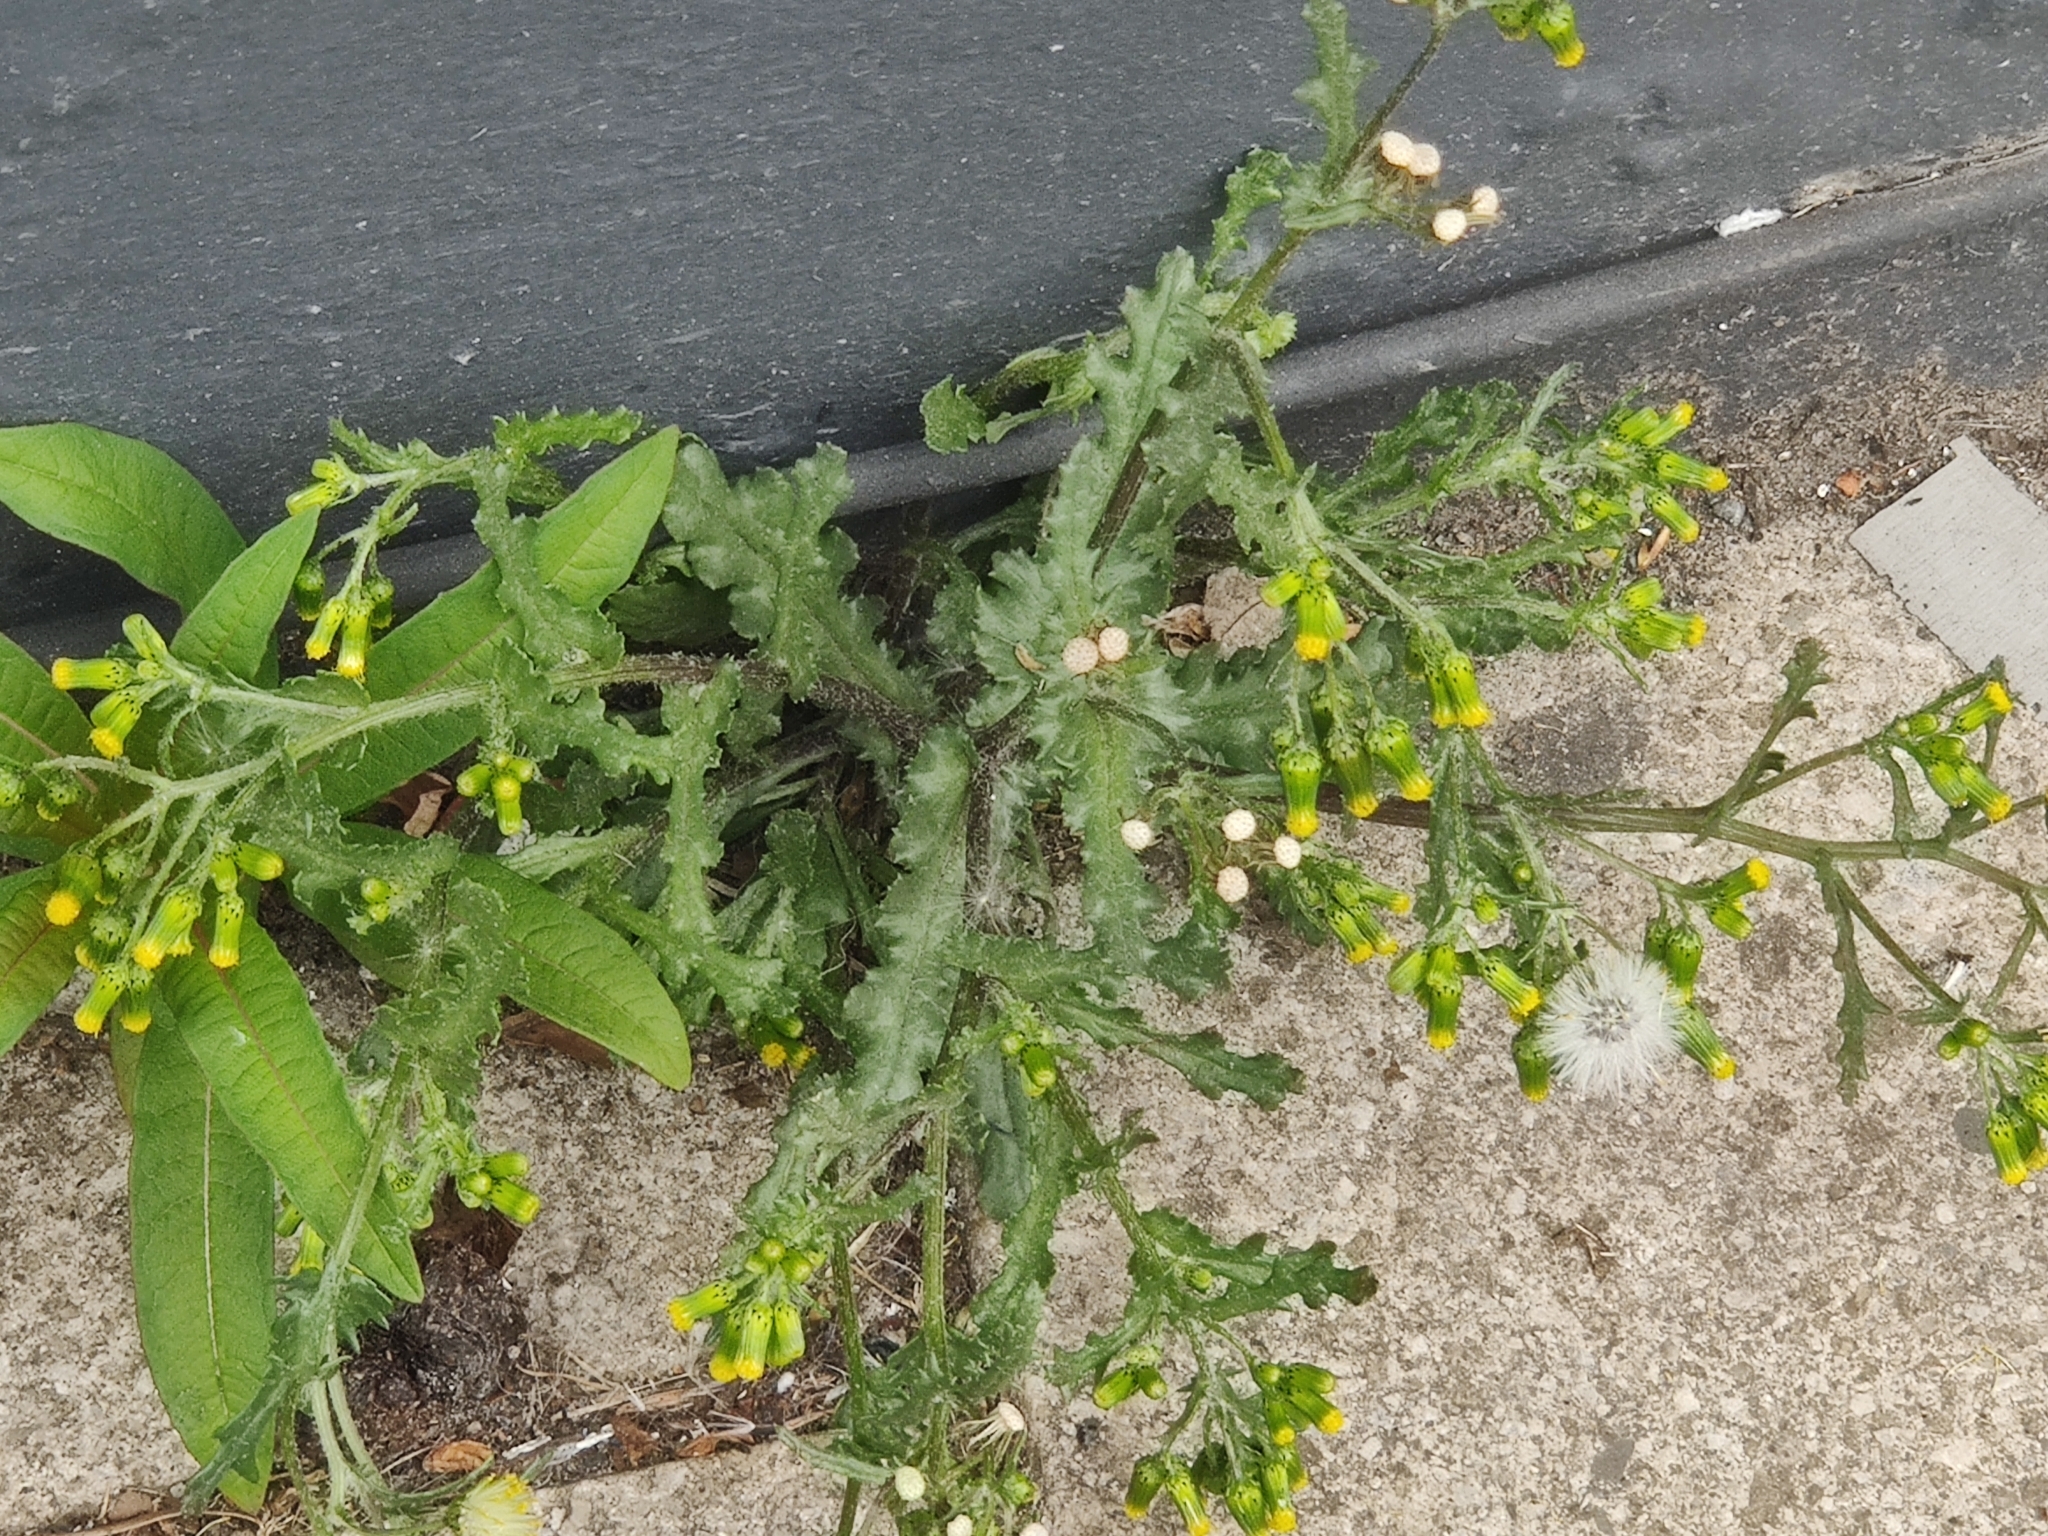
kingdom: Plantae
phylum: Tracheophyta
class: Magnoliopsida
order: Asterales
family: Asteraceae
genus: Senecio
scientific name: Senecio vulgaris
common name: Old-man-in-the-spring
